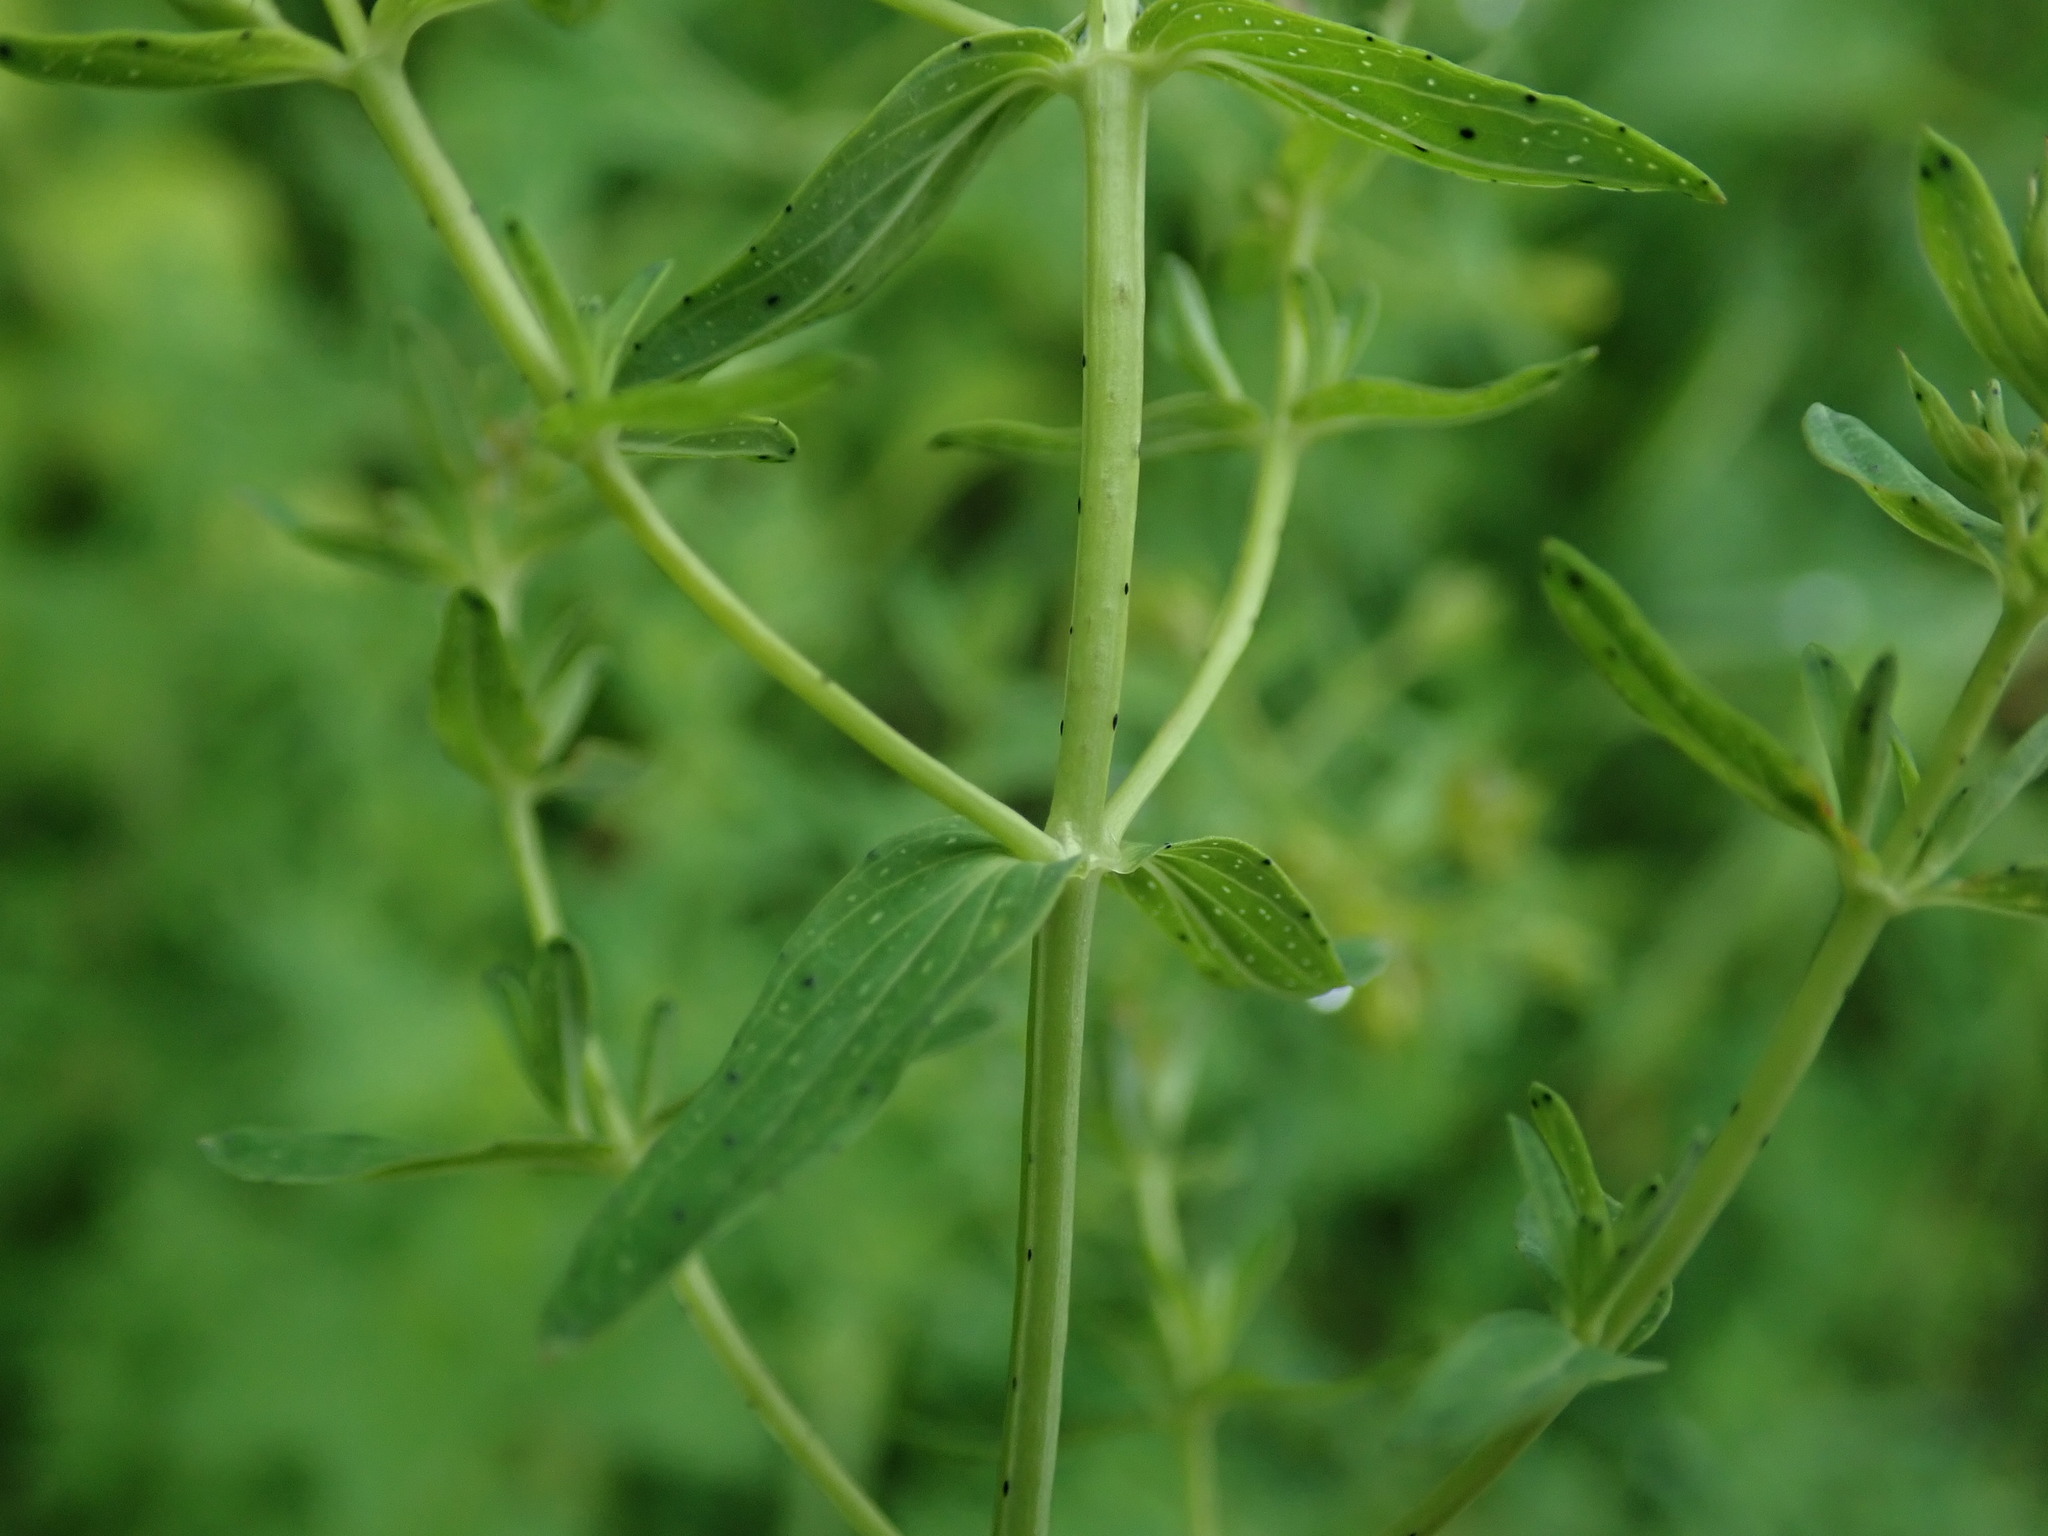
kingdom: Plantae
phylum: Tracheophyta
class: Magnoliopsida
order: Malpighiales
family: Hypericaceae
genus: Hypericum
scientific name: Hypericum perforatum
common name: Common st. johnswort
